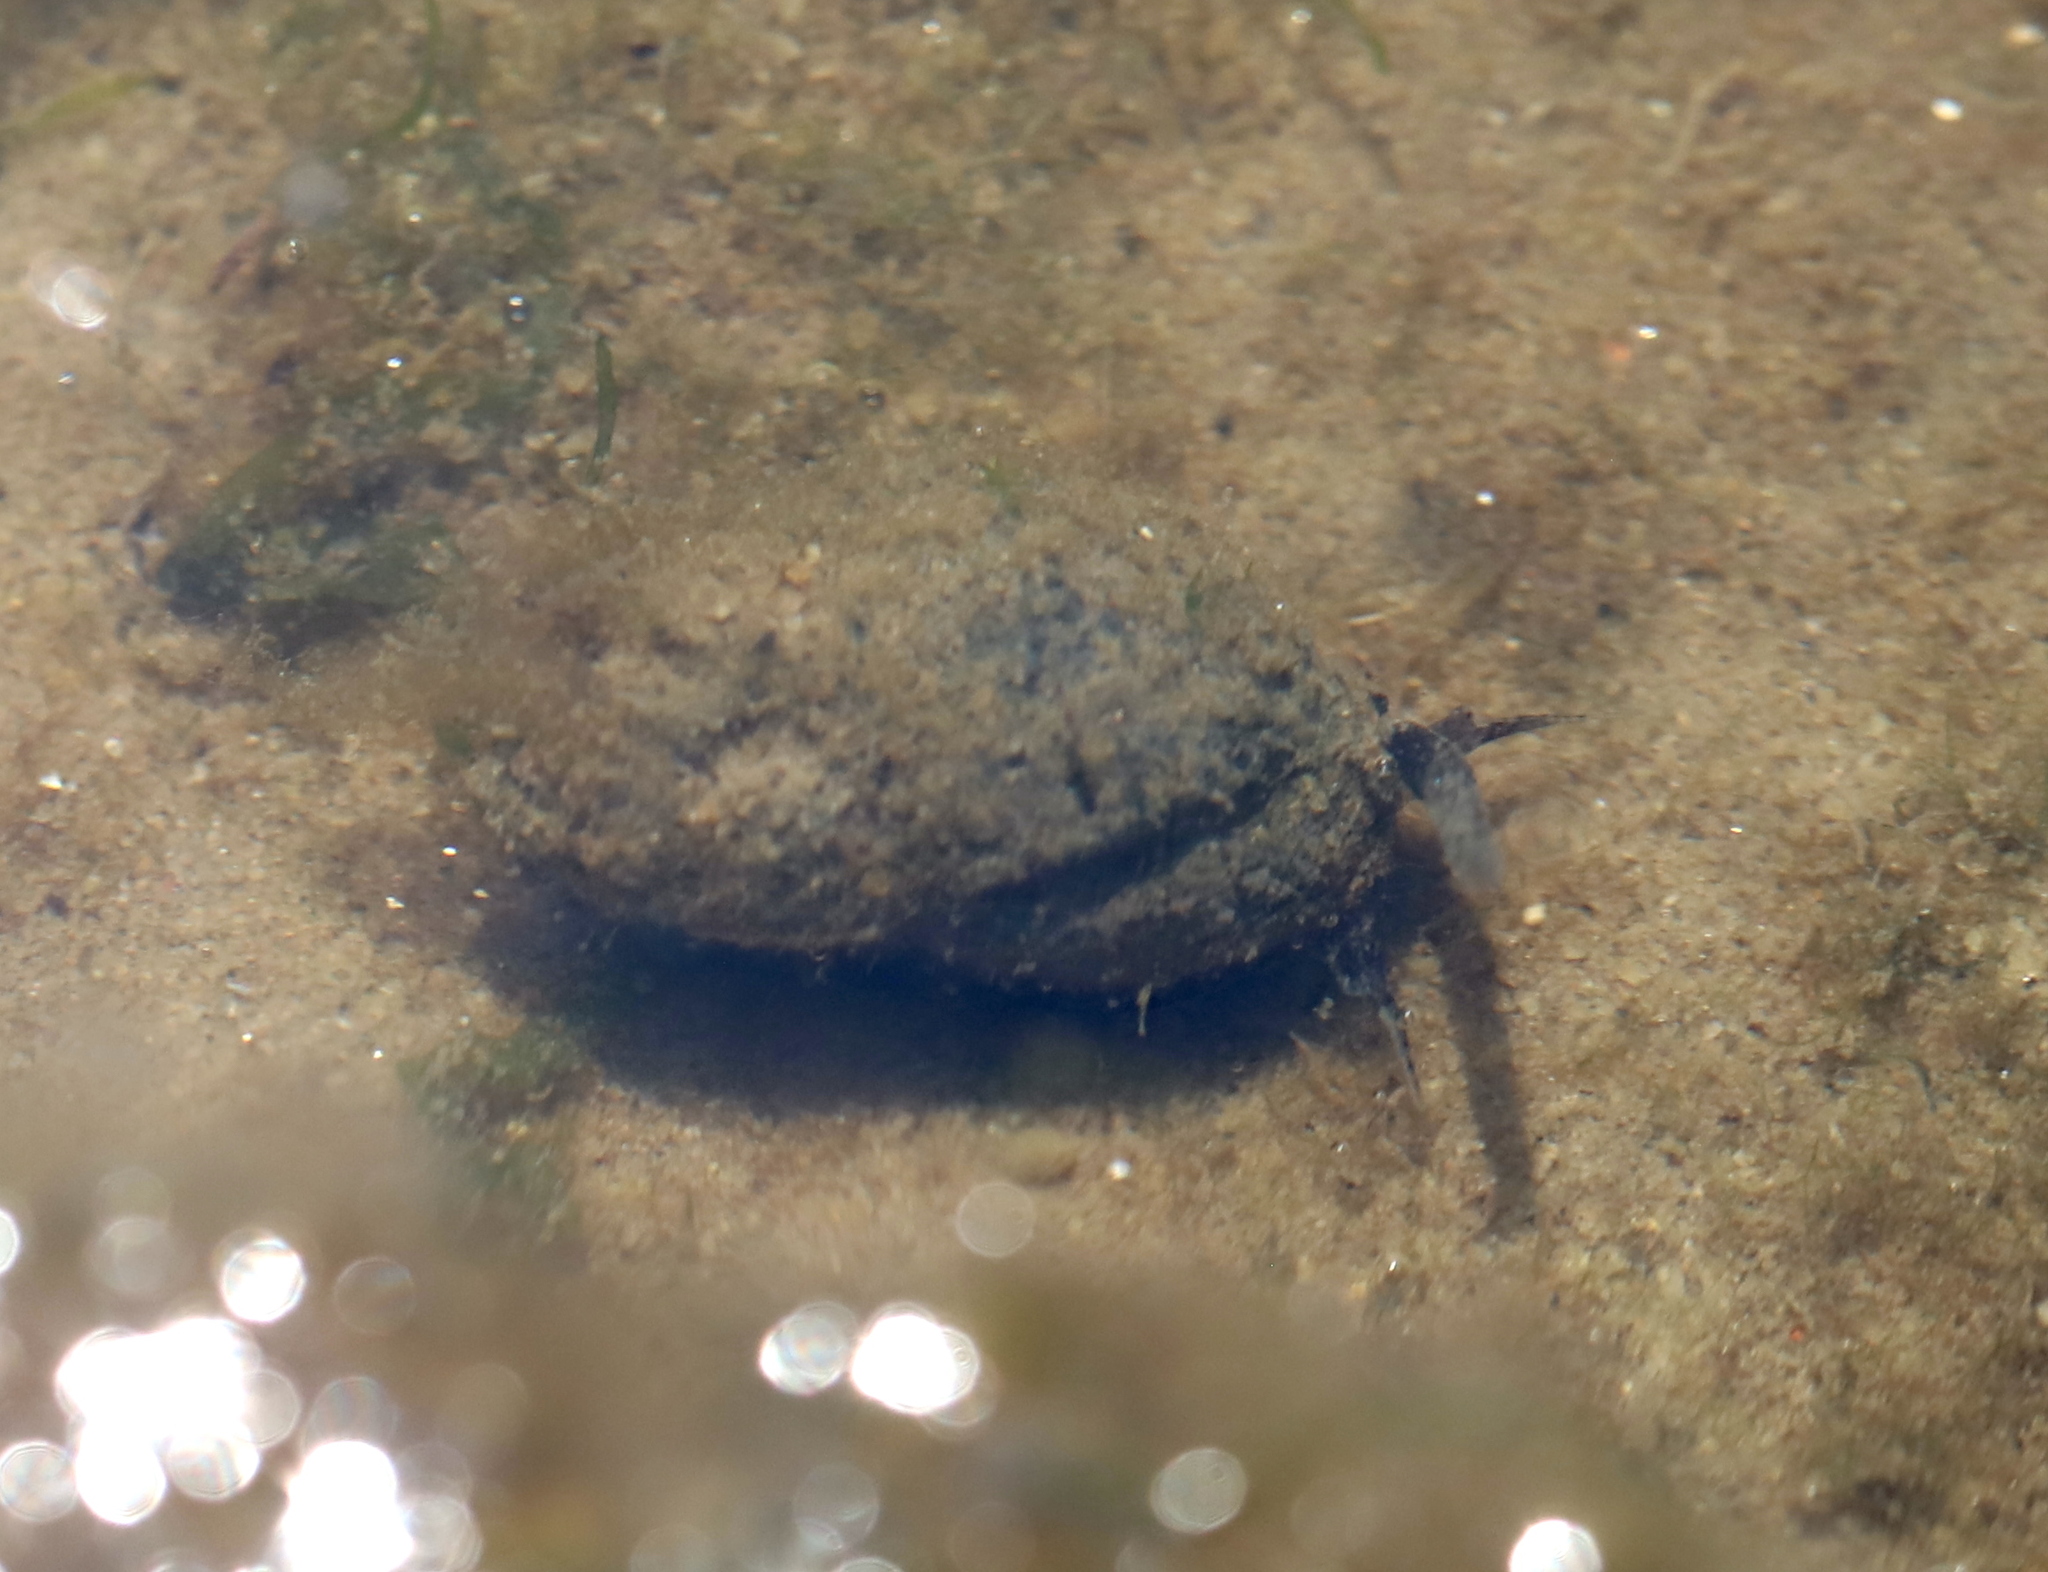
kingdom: Animalia
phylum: Mollusca
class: Gastropoda
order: Neogastropoda
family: Nassariidae
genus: Ilyanassa
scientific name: Ilyanassa obsoleta
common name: Eastern mudsnail
